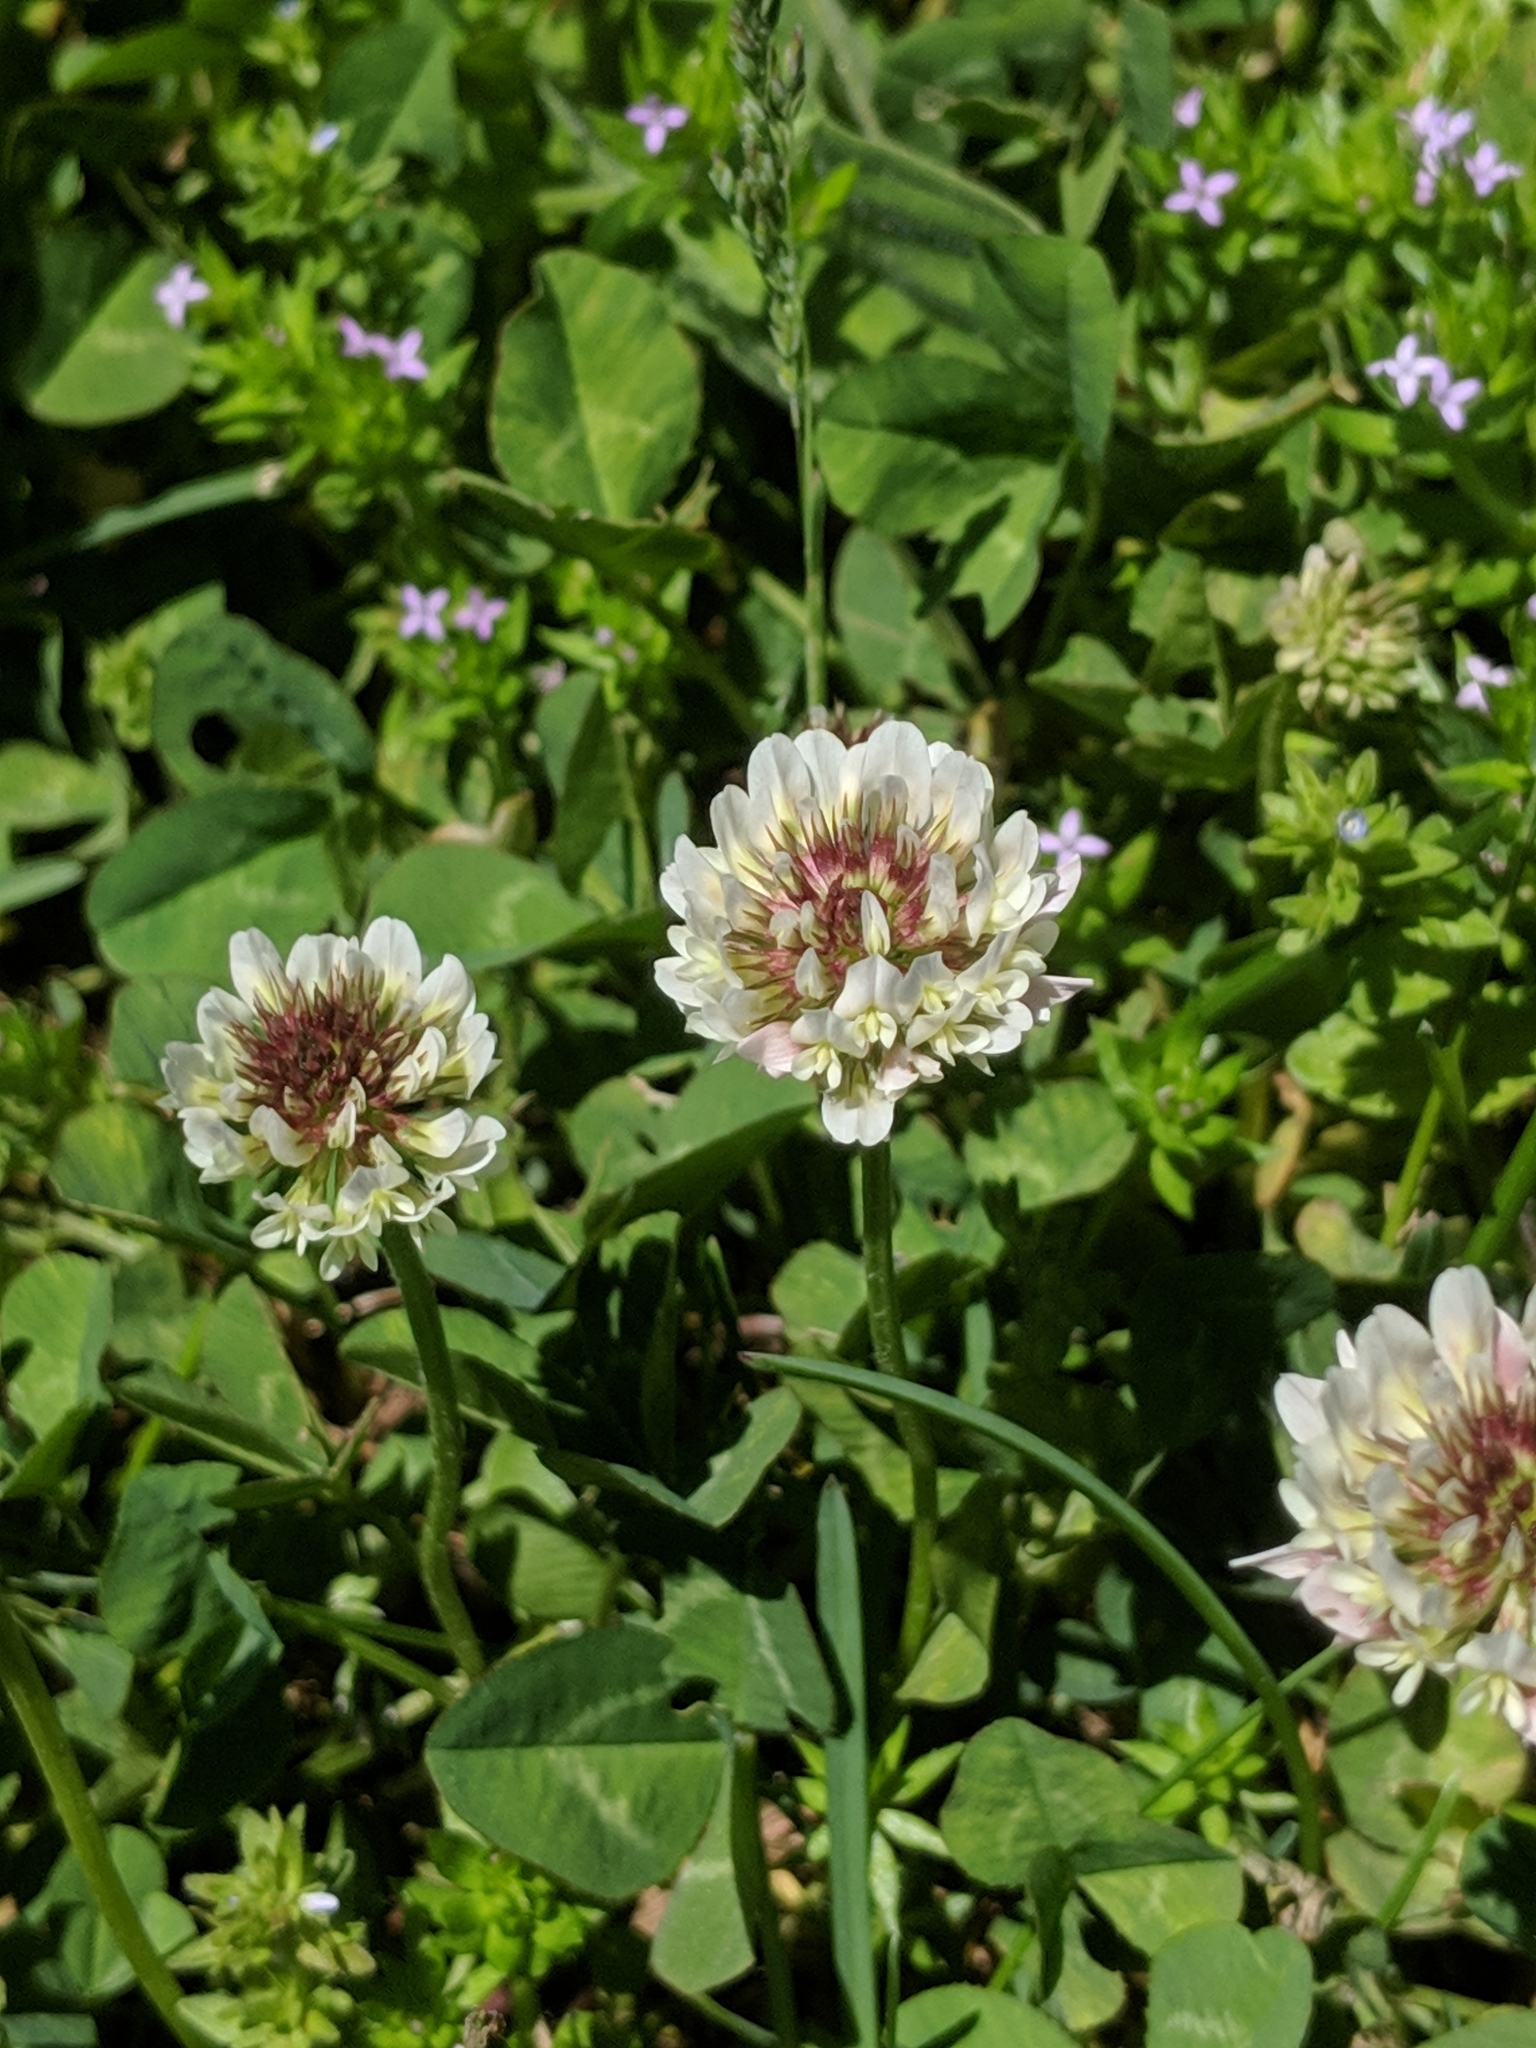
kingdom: Plantae
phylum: Tracheophyta
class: Magnoliopsida
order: Fabales
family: Fabaceae
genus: Trifolium
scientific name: Trifolium repens
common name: White clover
